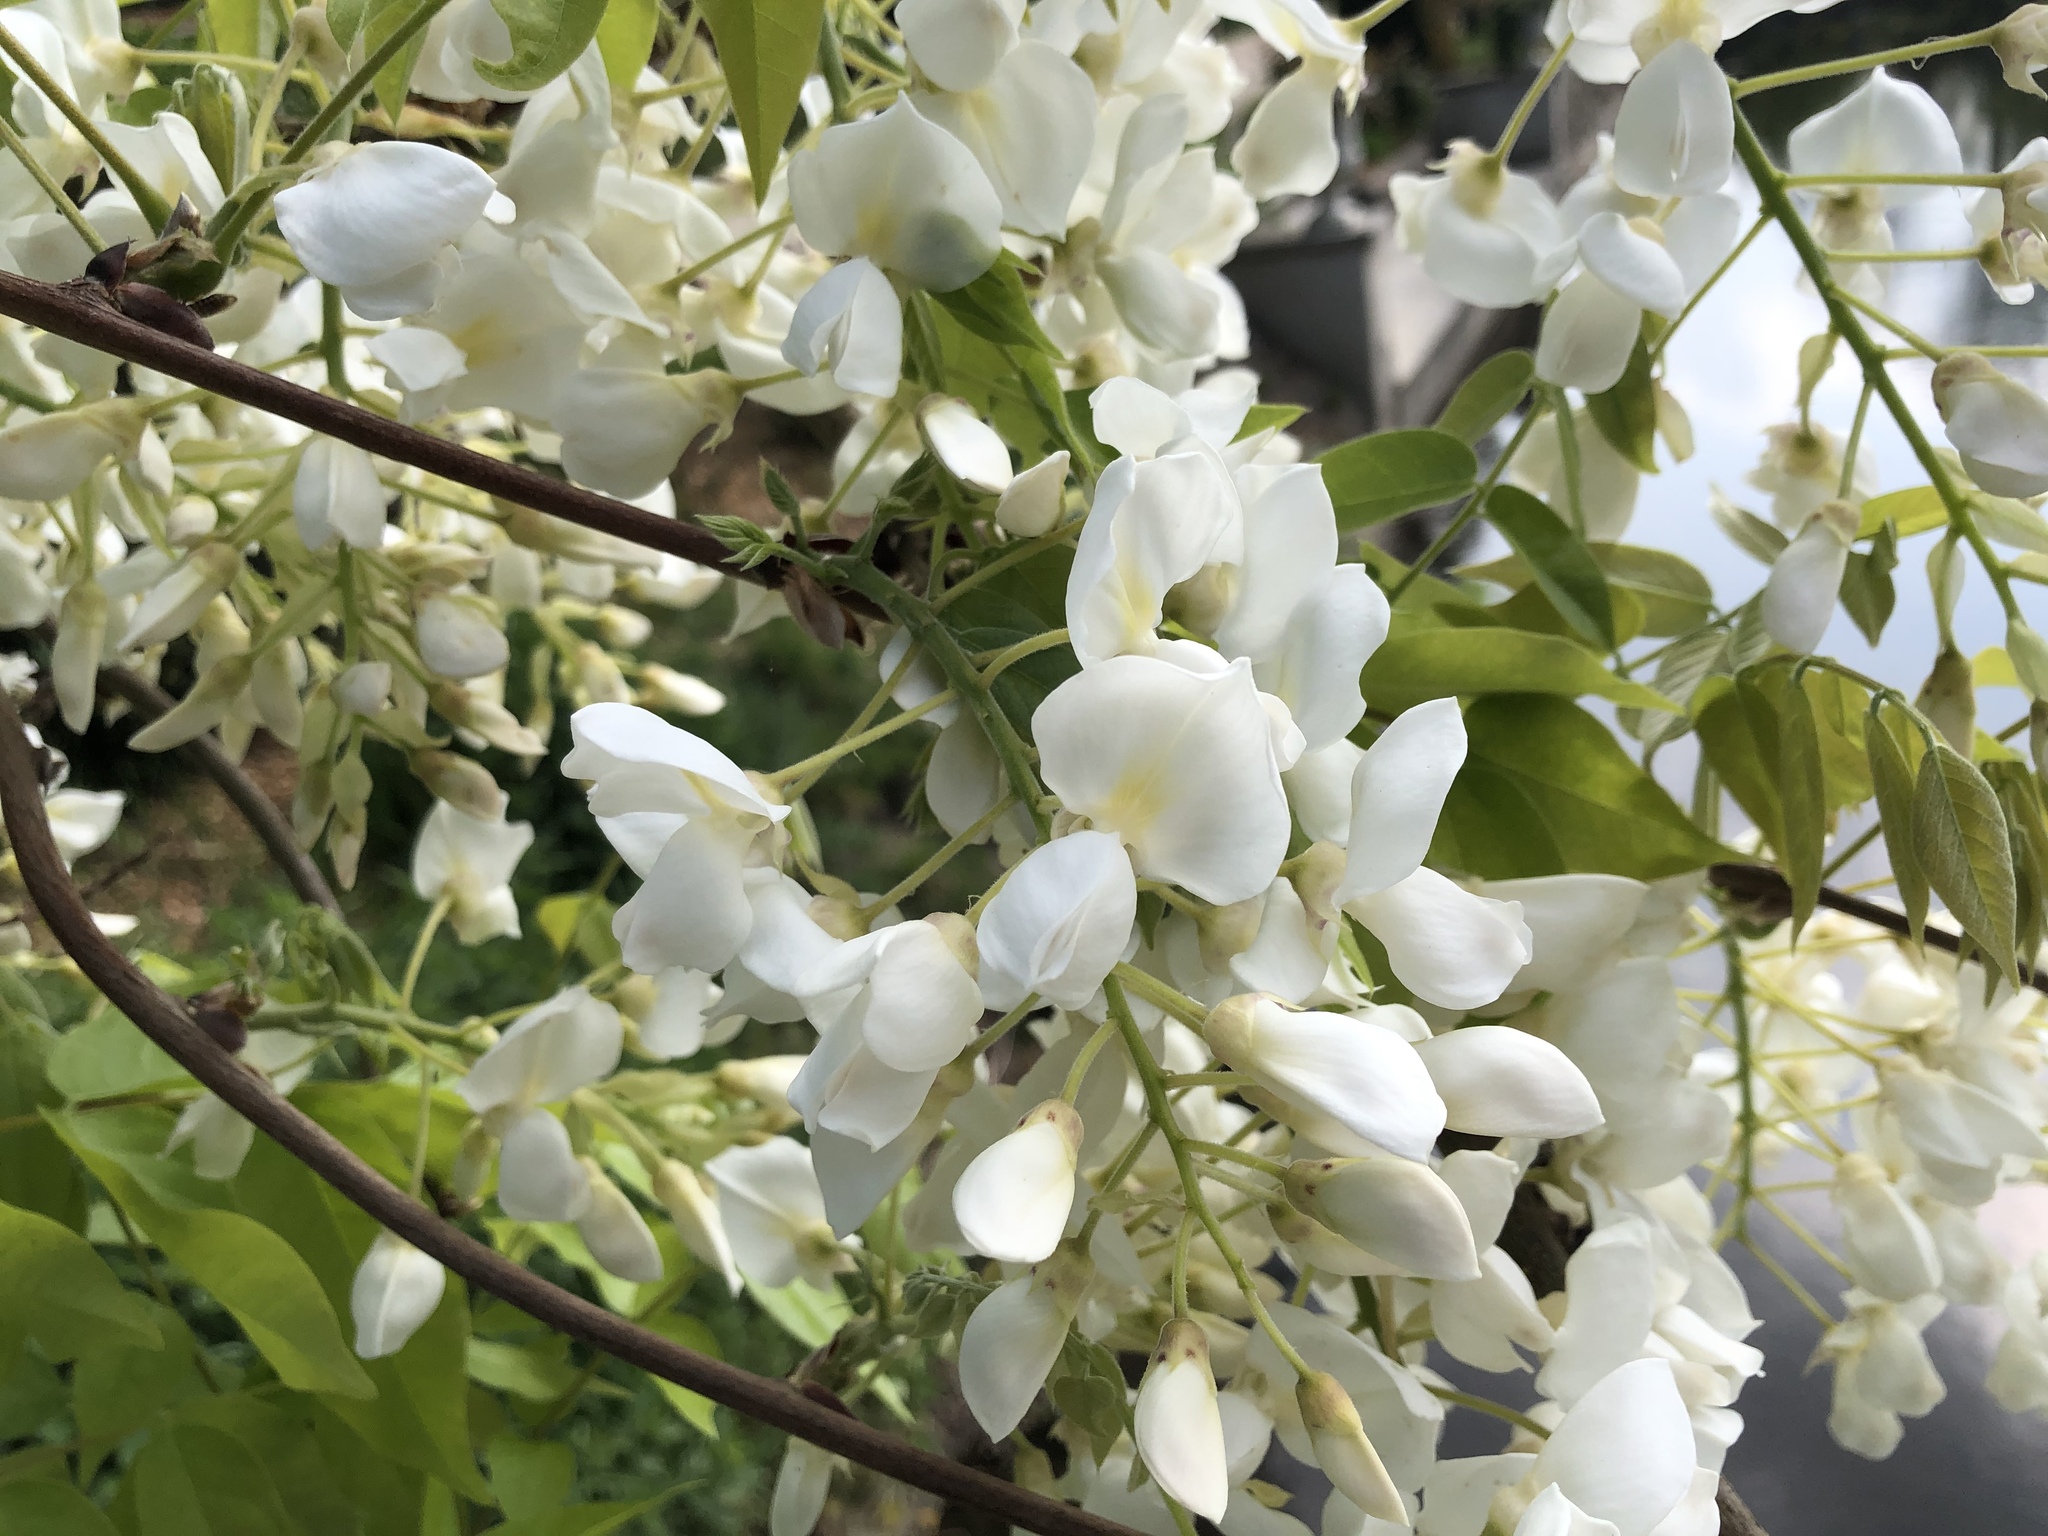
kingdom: Plantae
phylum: Tracheophyta
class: Magnoliopsida
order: Fabales
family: Fabaceae
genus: Robinia
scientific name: Robinia pseudoacacia
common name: Black locust
